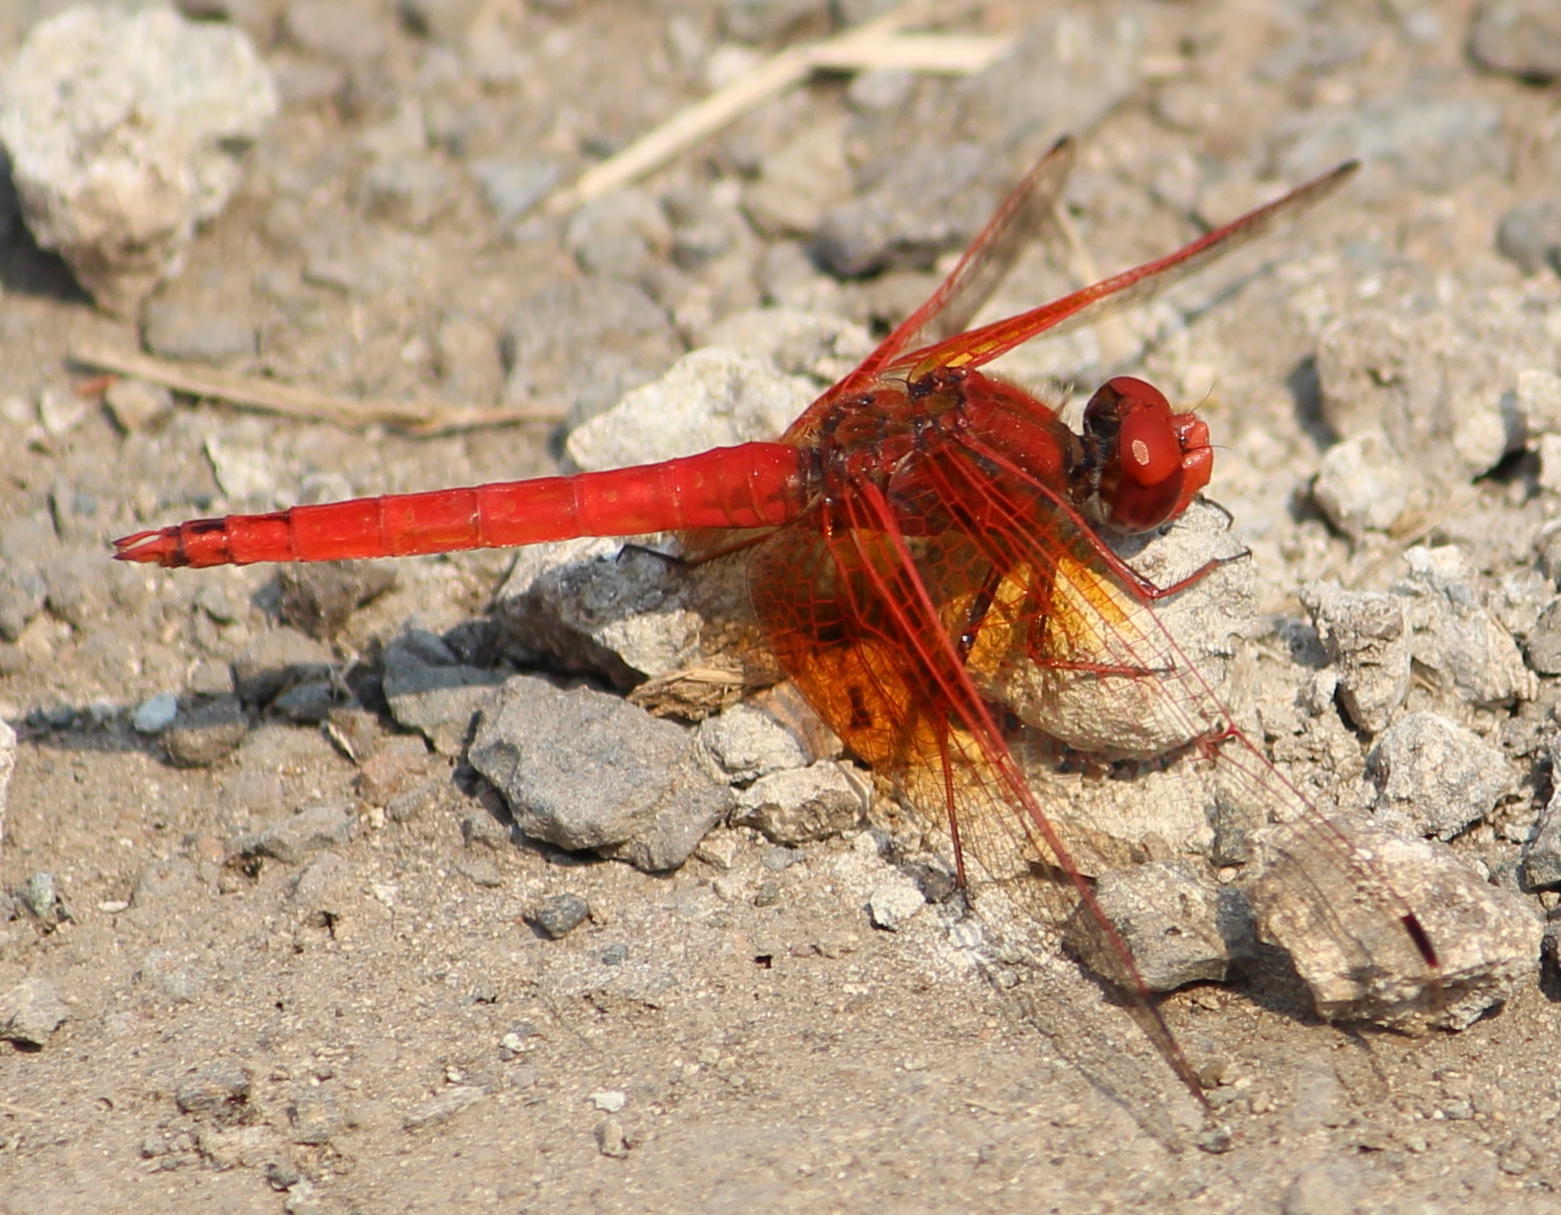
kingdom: Animalia
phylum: Arthropoda
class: Insecta
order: Odonata
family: Libellulidae
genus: Trithemis
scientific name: Trithemis kirbyi
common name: Kirby's dropwing
